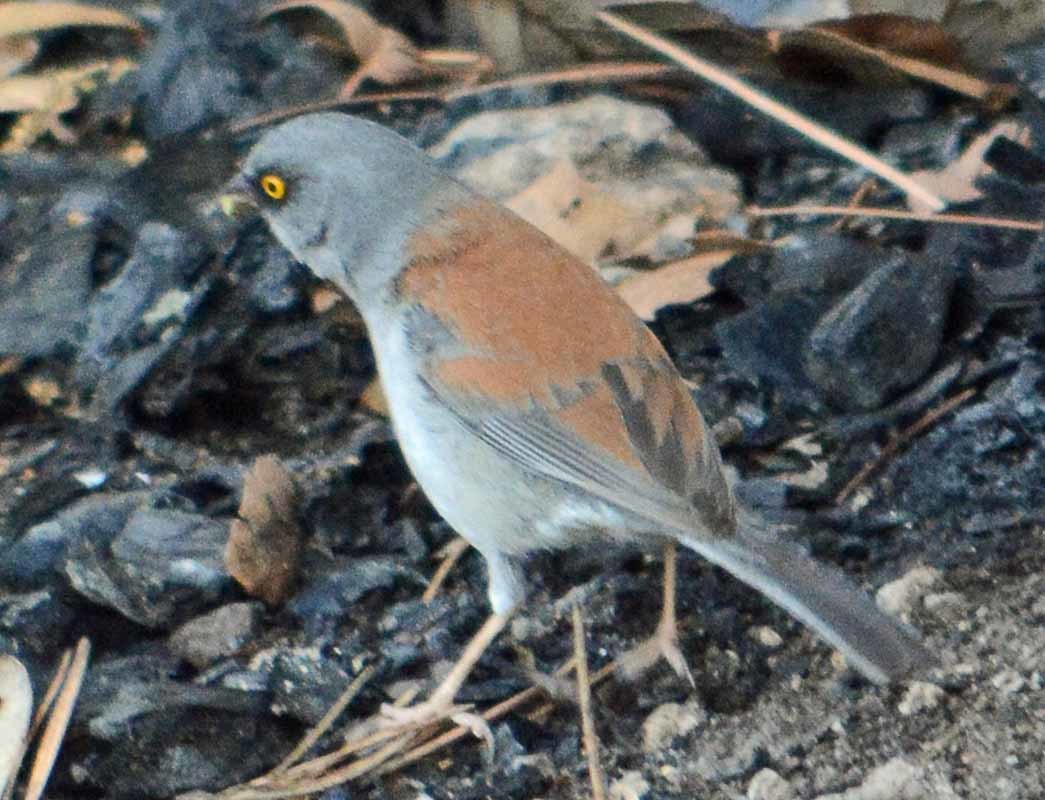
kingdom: Animalia
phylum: Chordata
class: Aves
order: Passeriformes
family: Passerellidae
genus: Junco
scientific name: Junco phaeonotus
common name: Yellow-eyed junco
